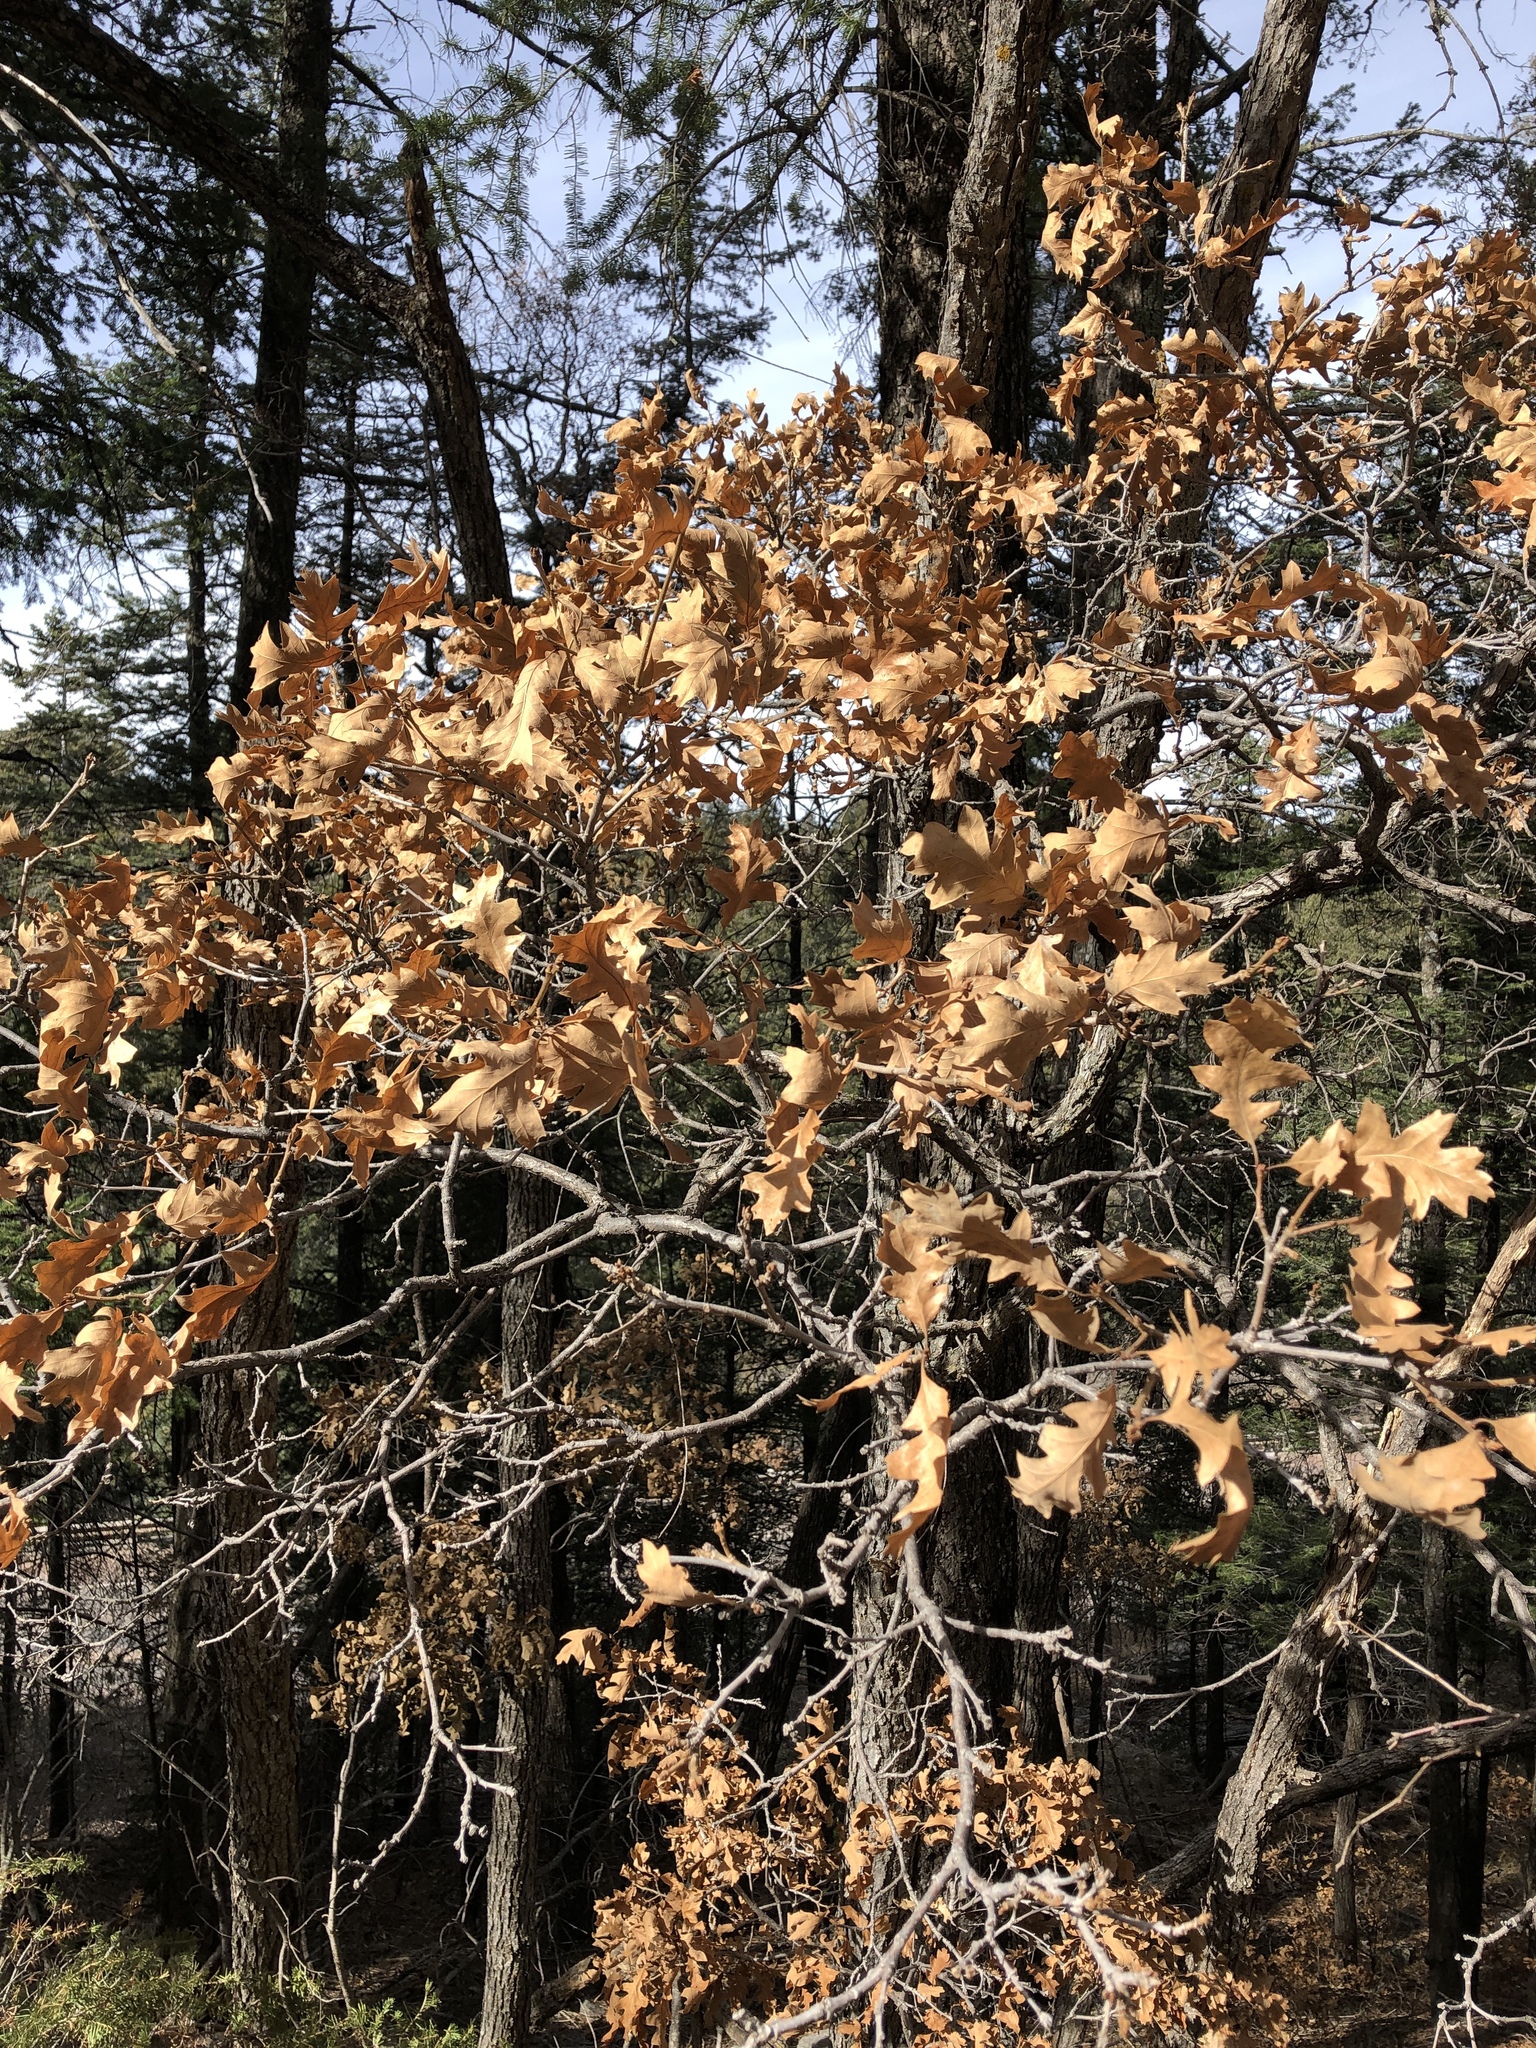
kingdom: Plantae
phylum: Tracheophyta
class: Magnoliopsida
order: Fagales
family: Fagaceae
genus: Quercus
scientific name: Quercus gambelii
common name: Gambel oak
